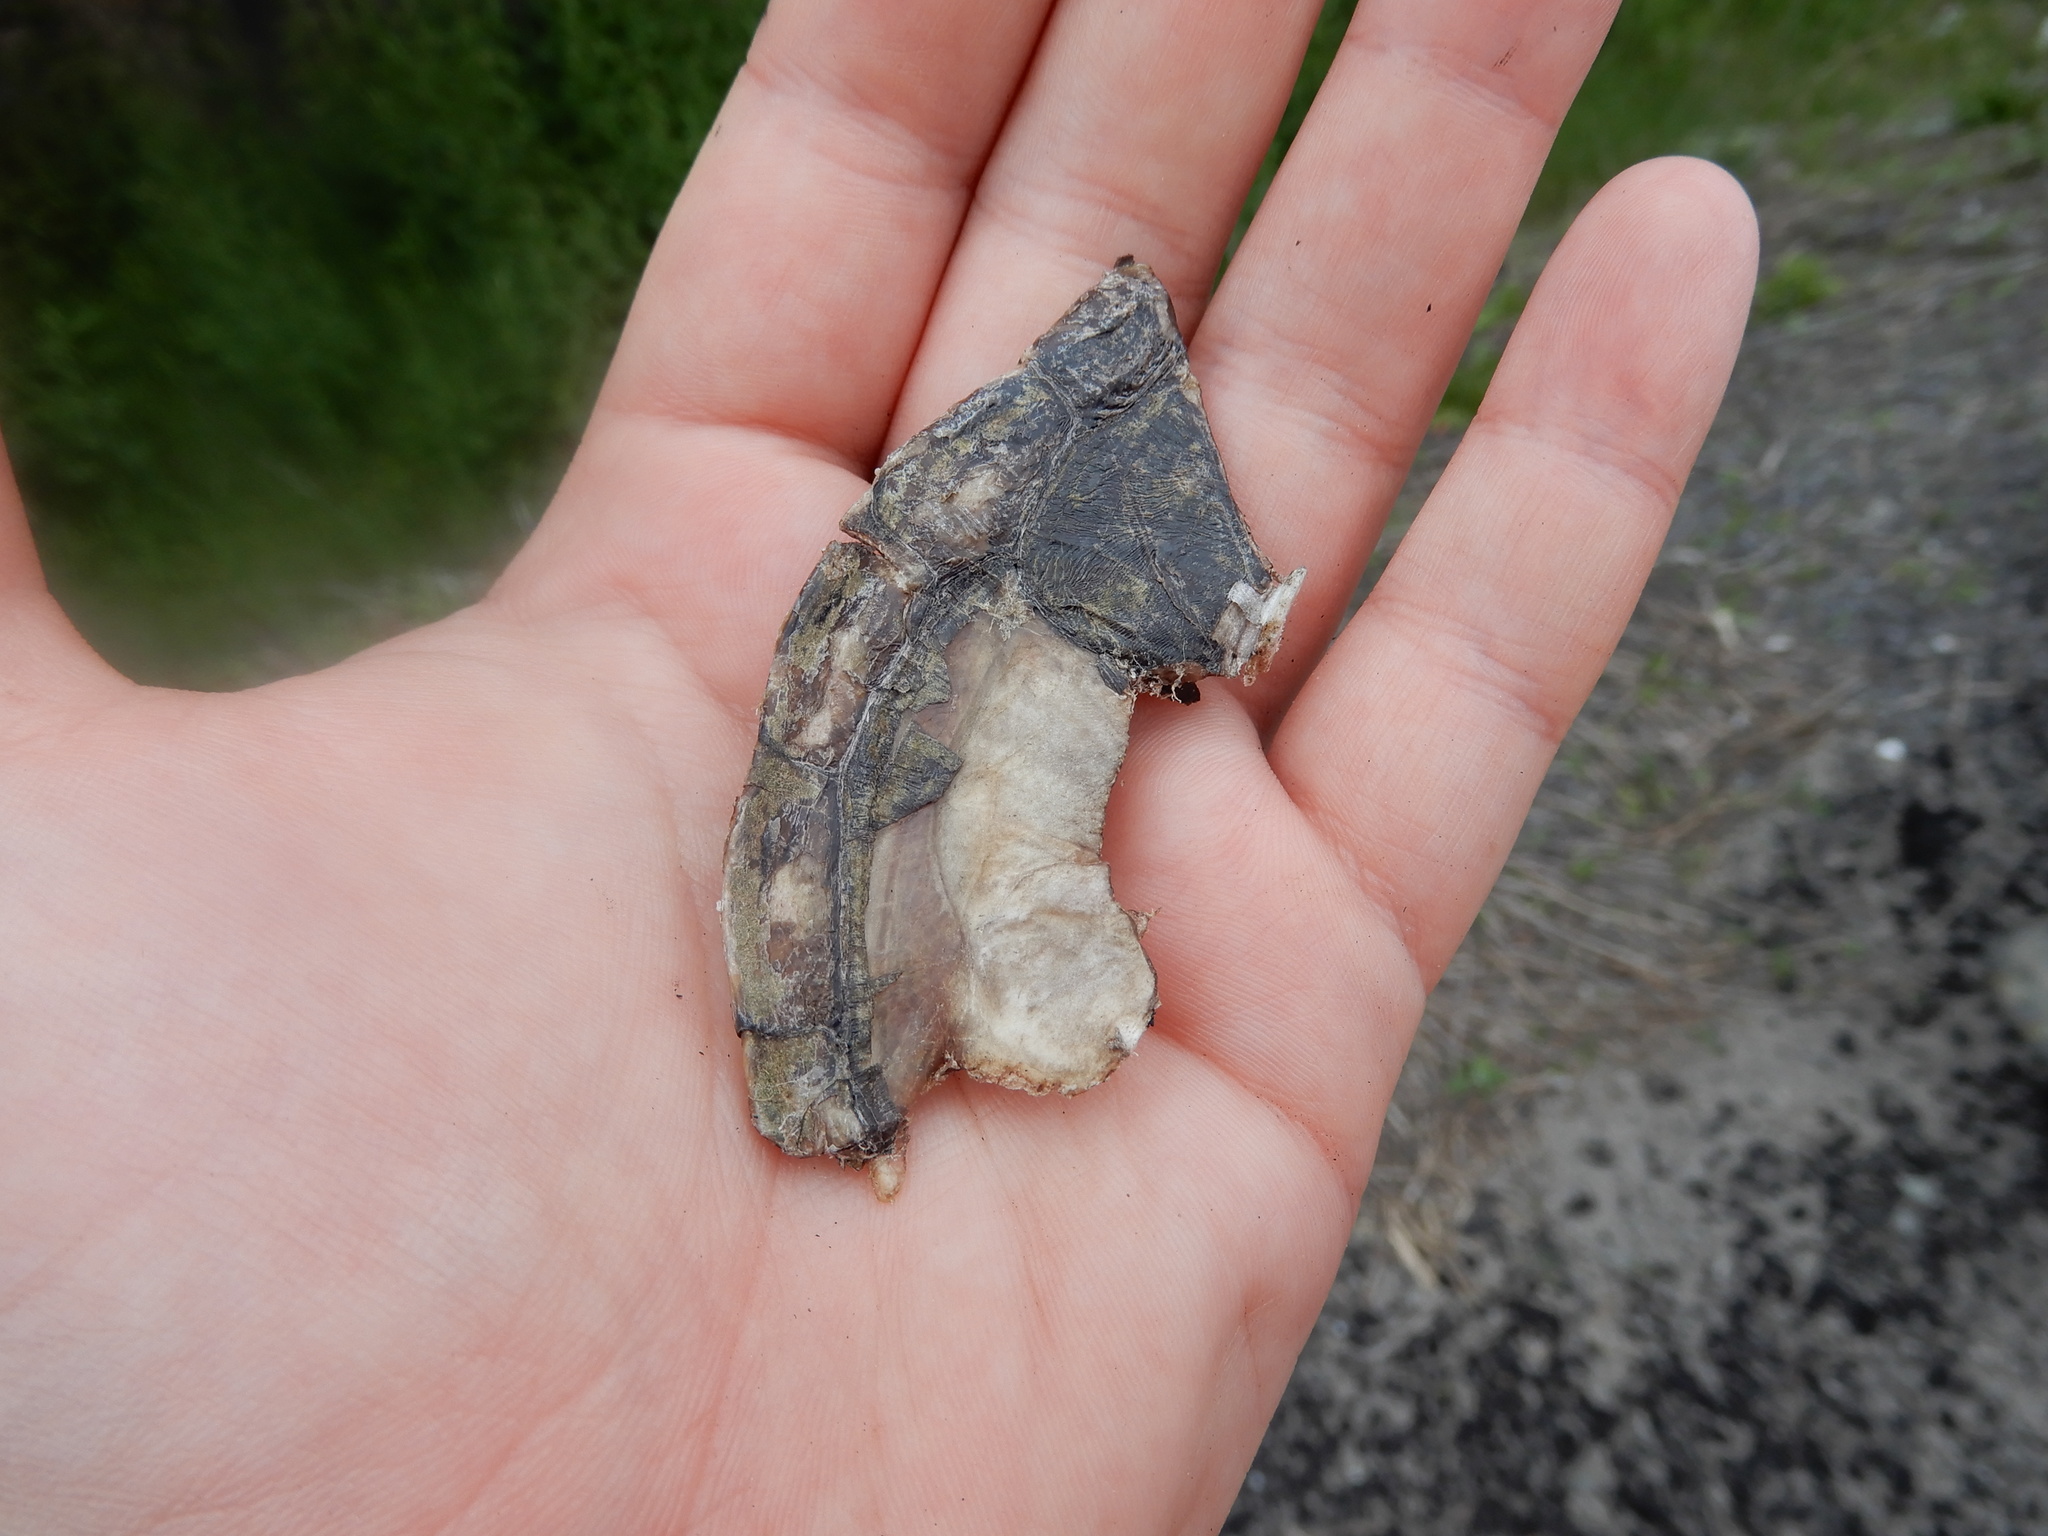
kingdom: Animalia
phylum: Chordata
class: Testudines
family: Chelydridae
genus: Chelydra
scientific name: Chelydra serpentina
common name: Common snapping turtle
